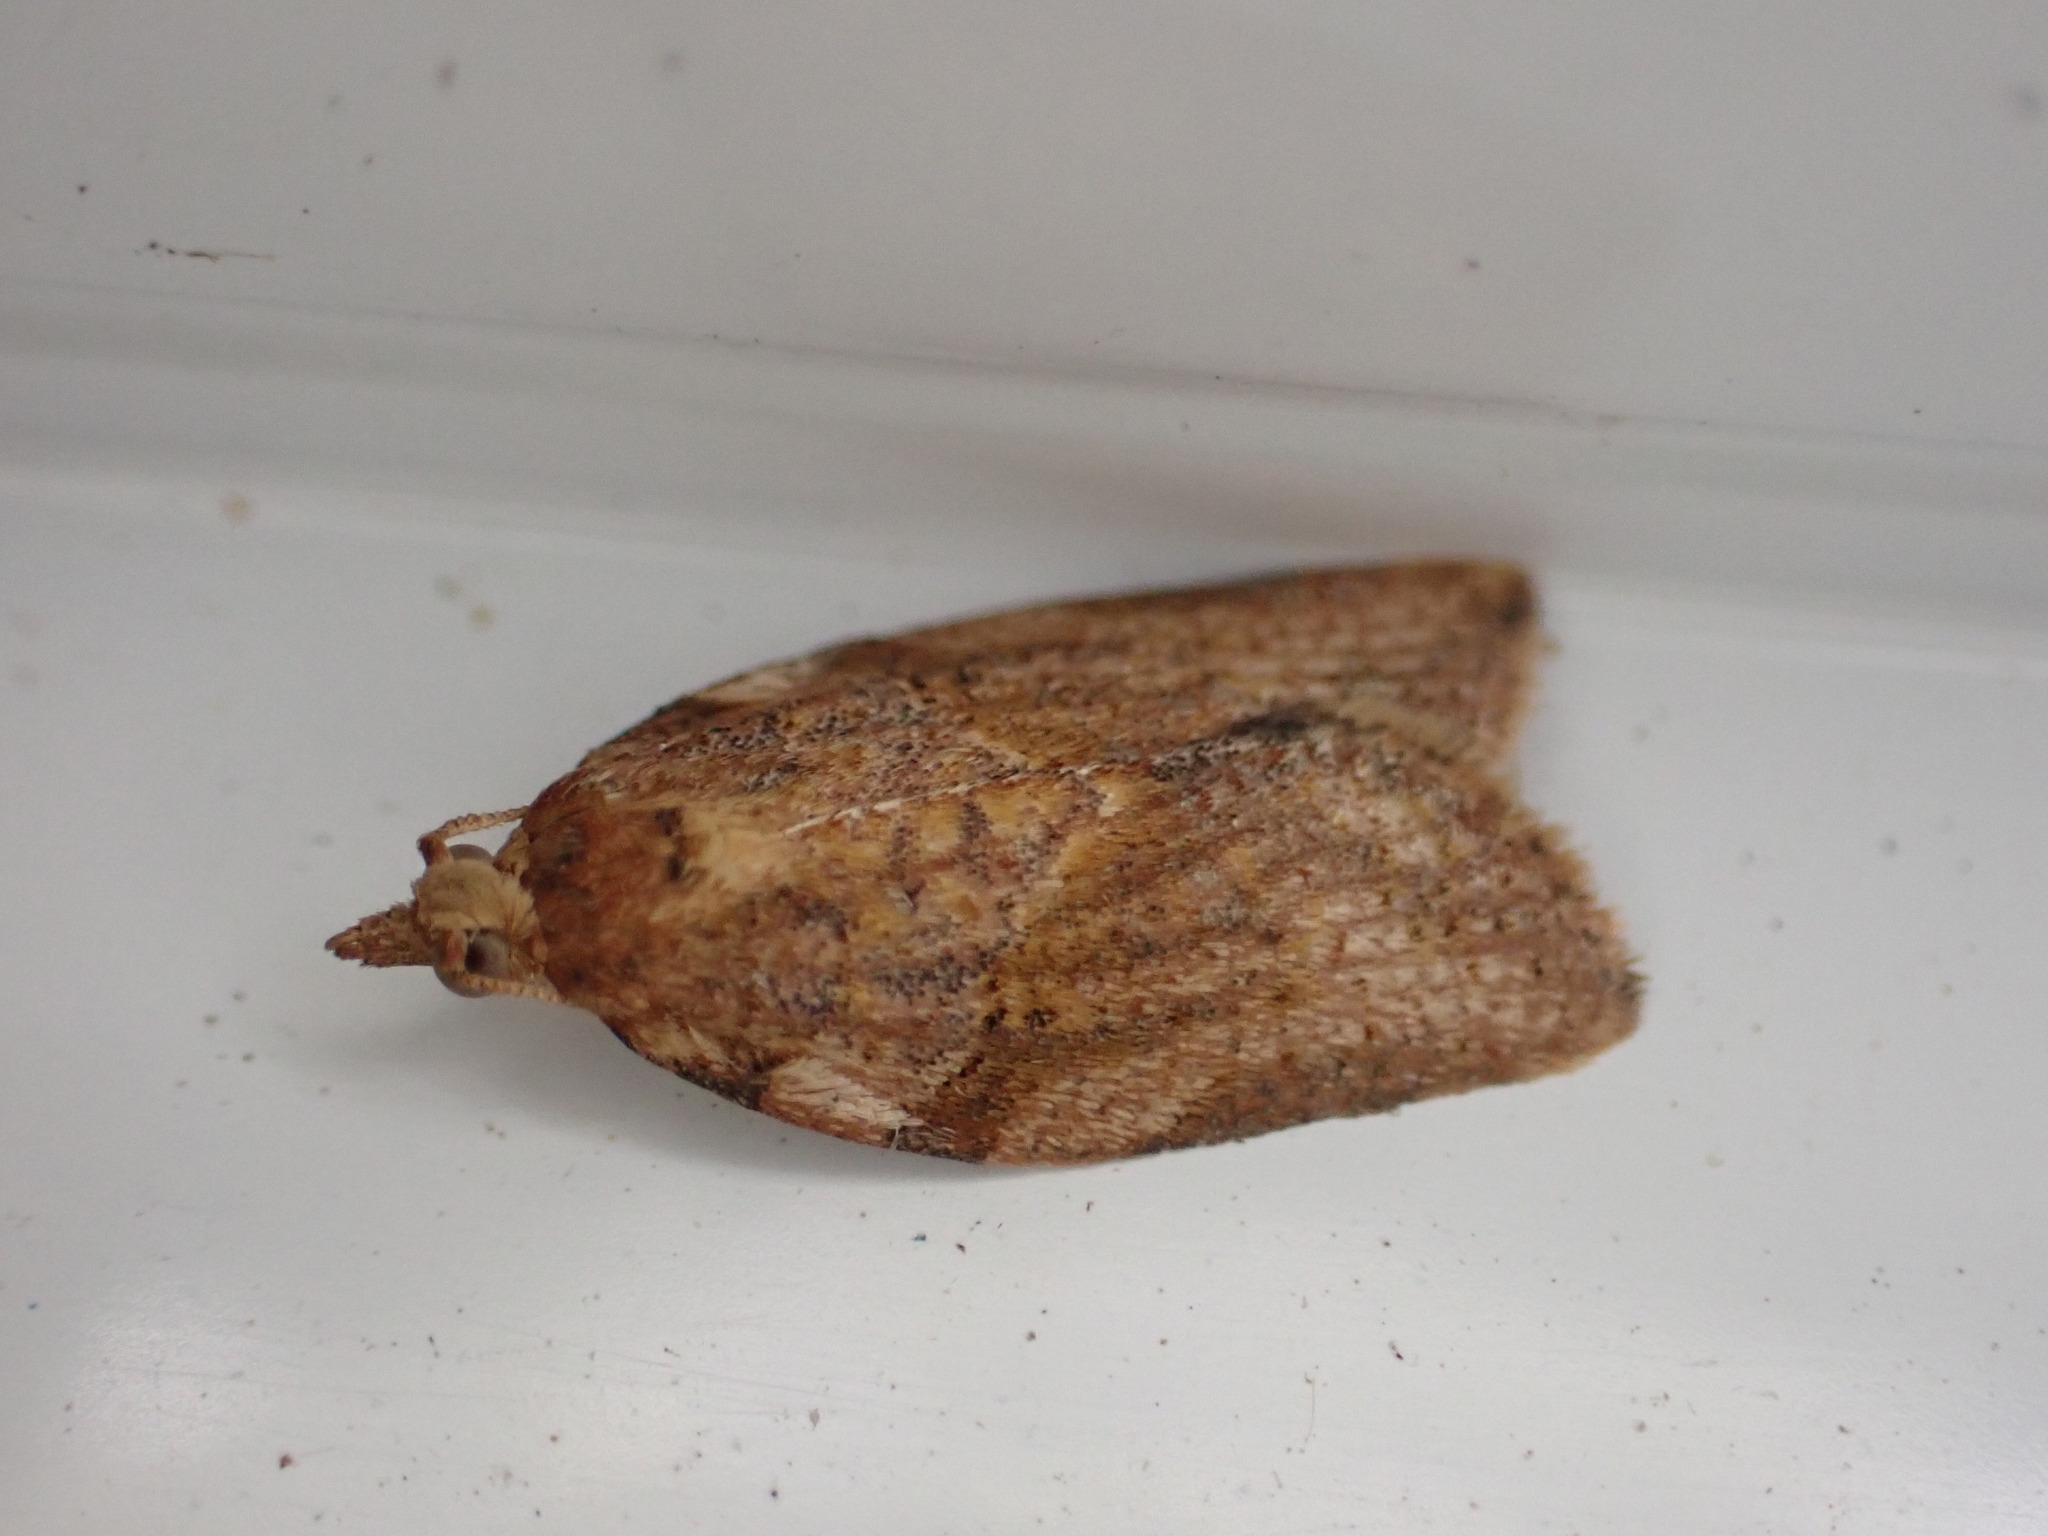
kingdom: Animalia
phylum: Arthropoda
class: Insecta
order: Lepidoptera
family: Tortricidae
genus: Epiphyas
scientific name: Epiphyas postvittana
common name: Light brown apple moth
